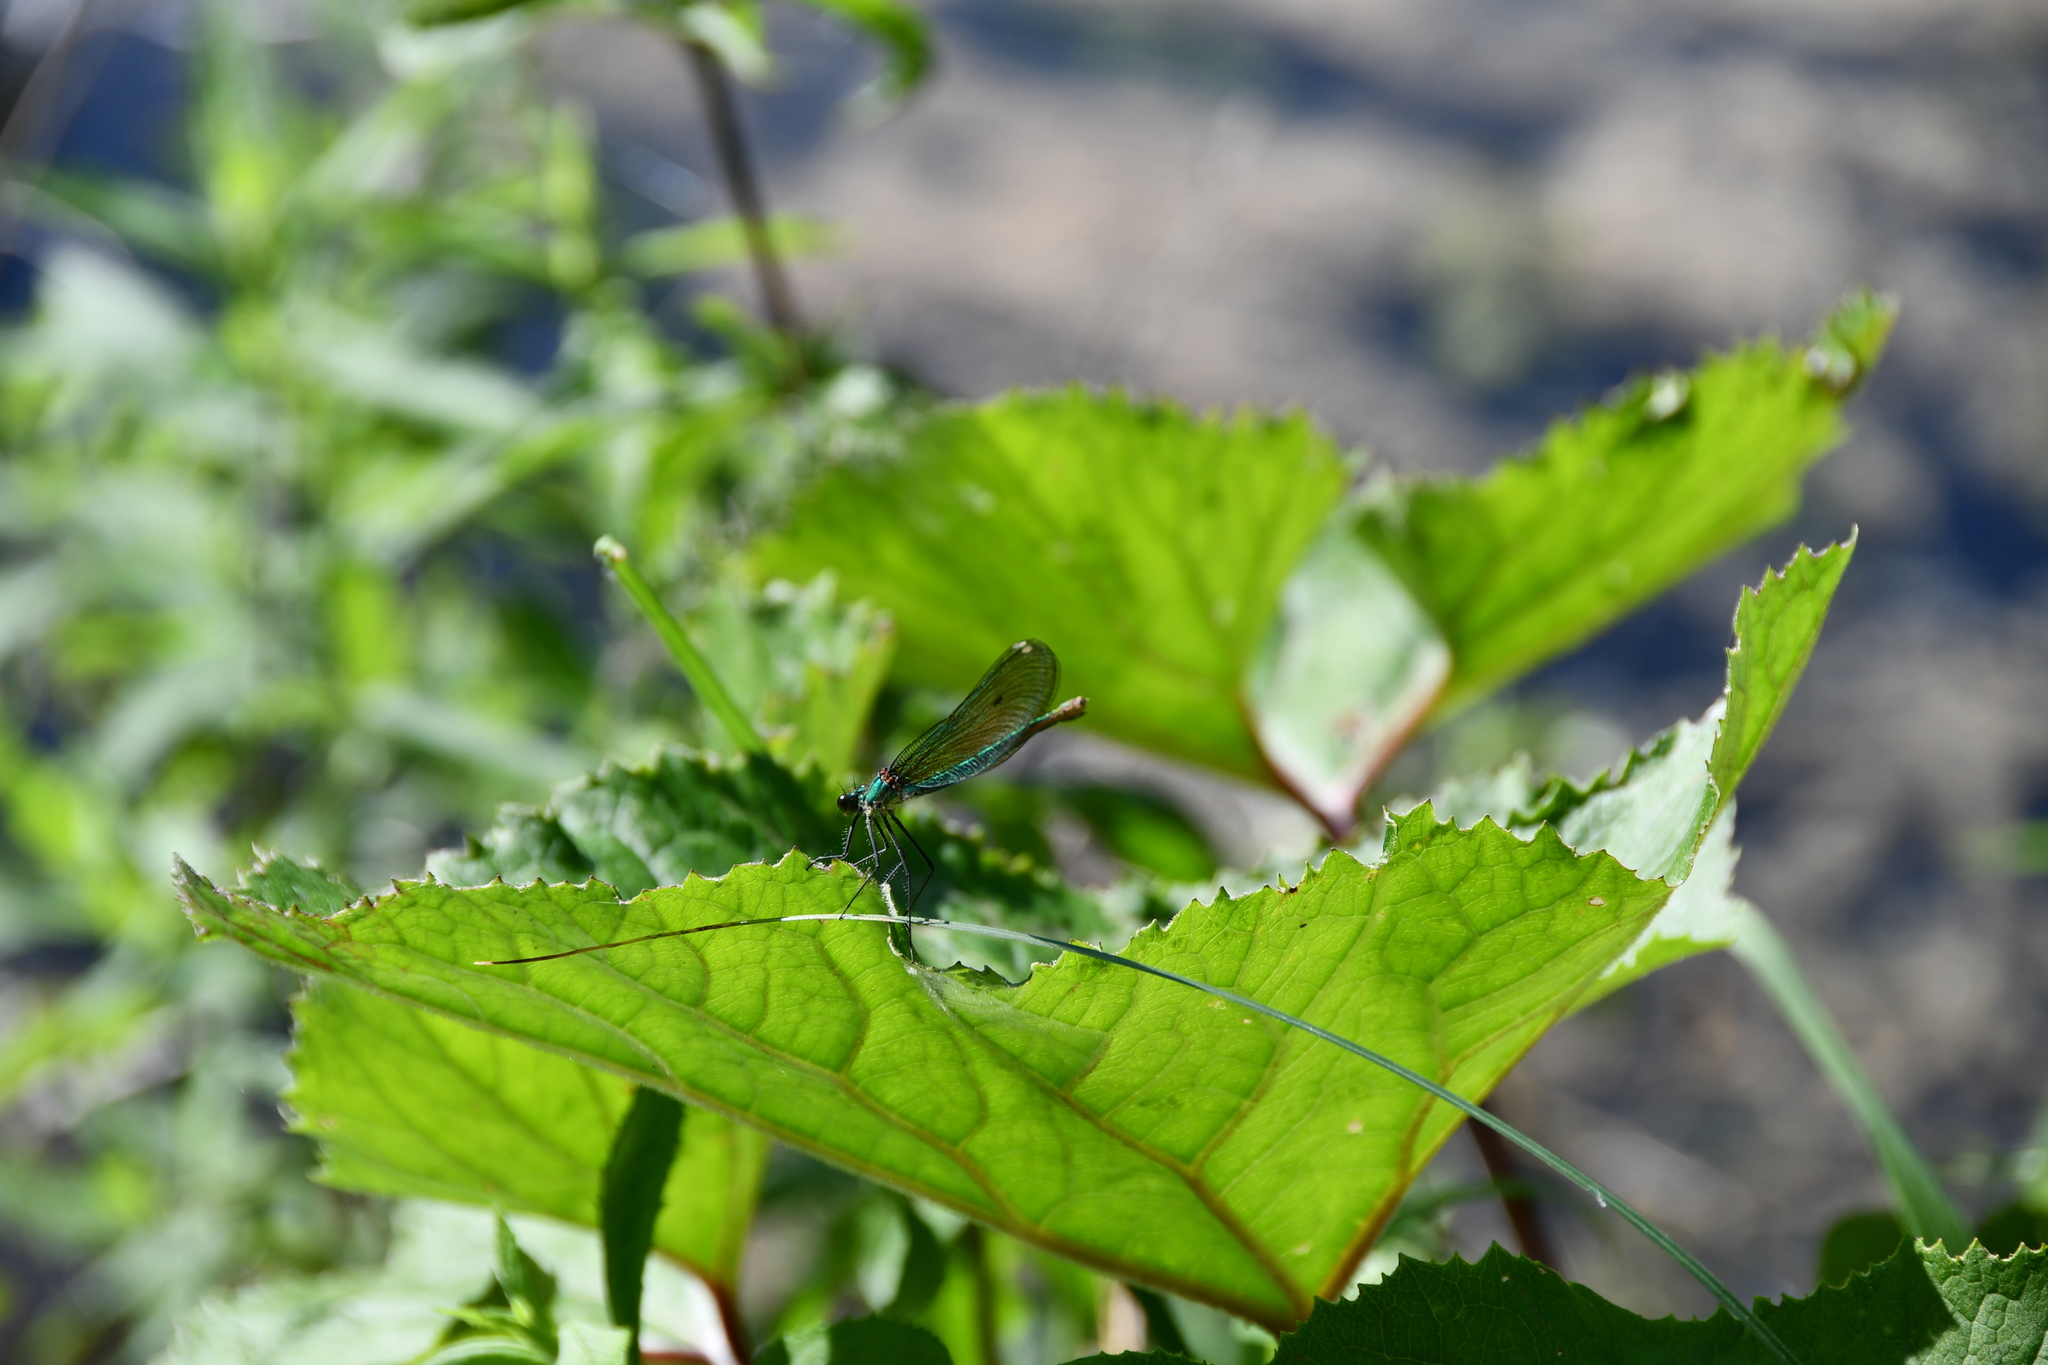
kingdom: Animalia
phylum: Arthropoda
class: Insecta
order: Odonata
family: Calopterygidae
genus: Calopteryx
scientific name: Calopteryx splendens
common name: Banded demoiselle
